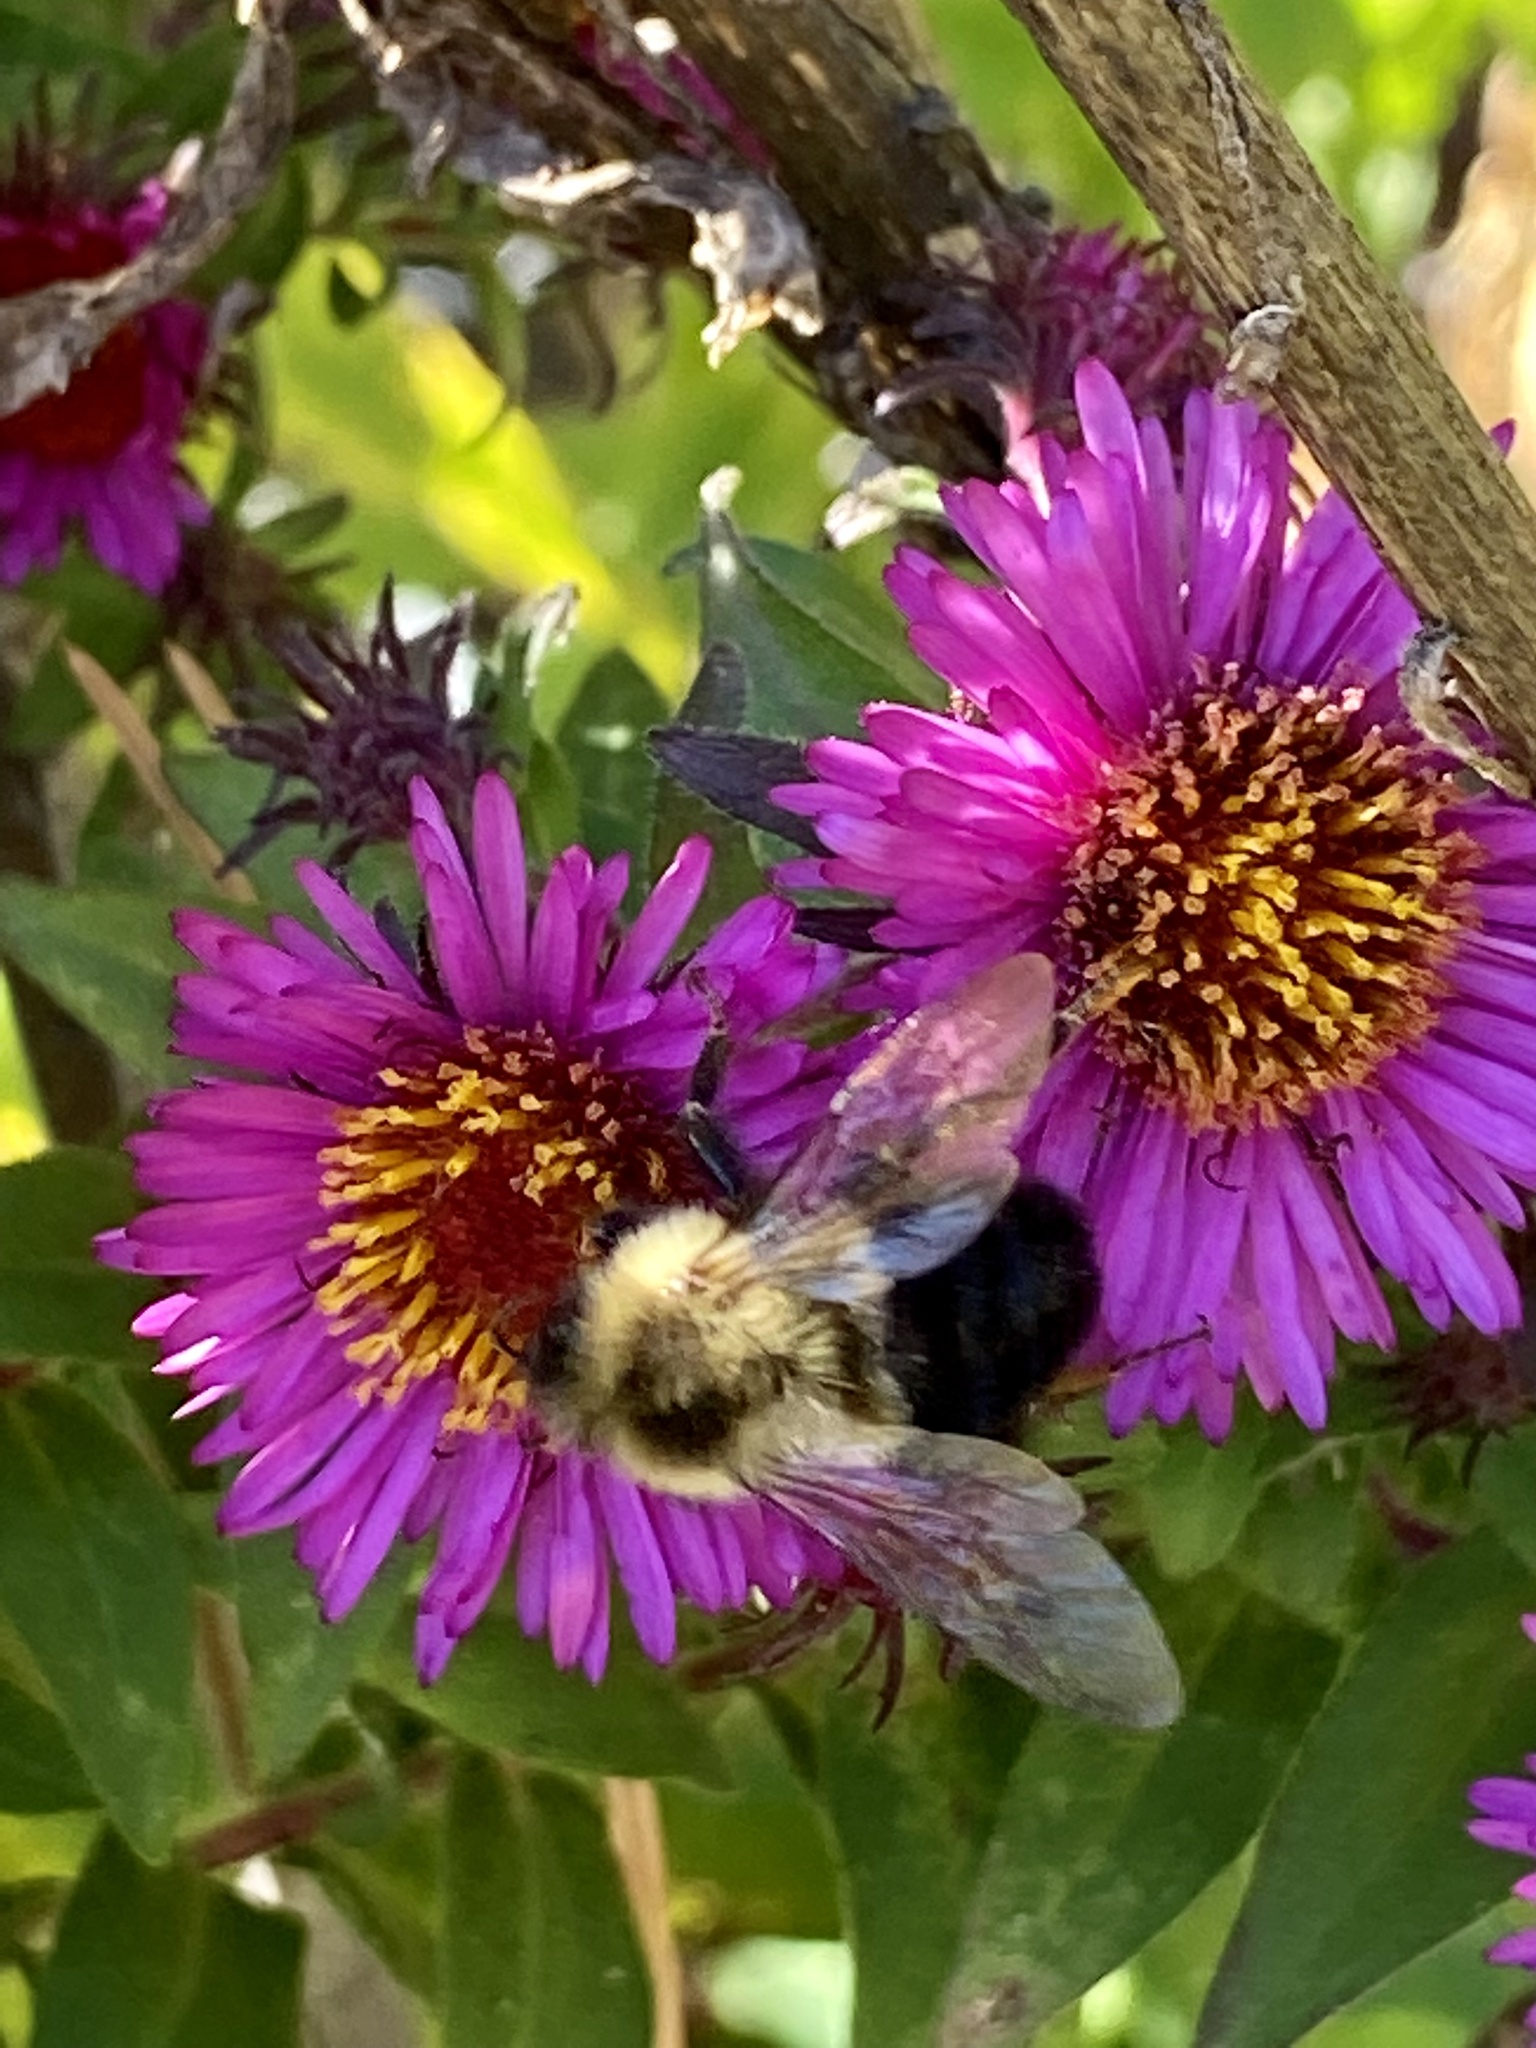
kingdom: Animalia
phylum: Arthropoda
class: Insecta
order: Hymenoptera
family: Apidae
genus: Bombus
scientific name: Bombus impatiens
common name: Common eastern bumble bee
